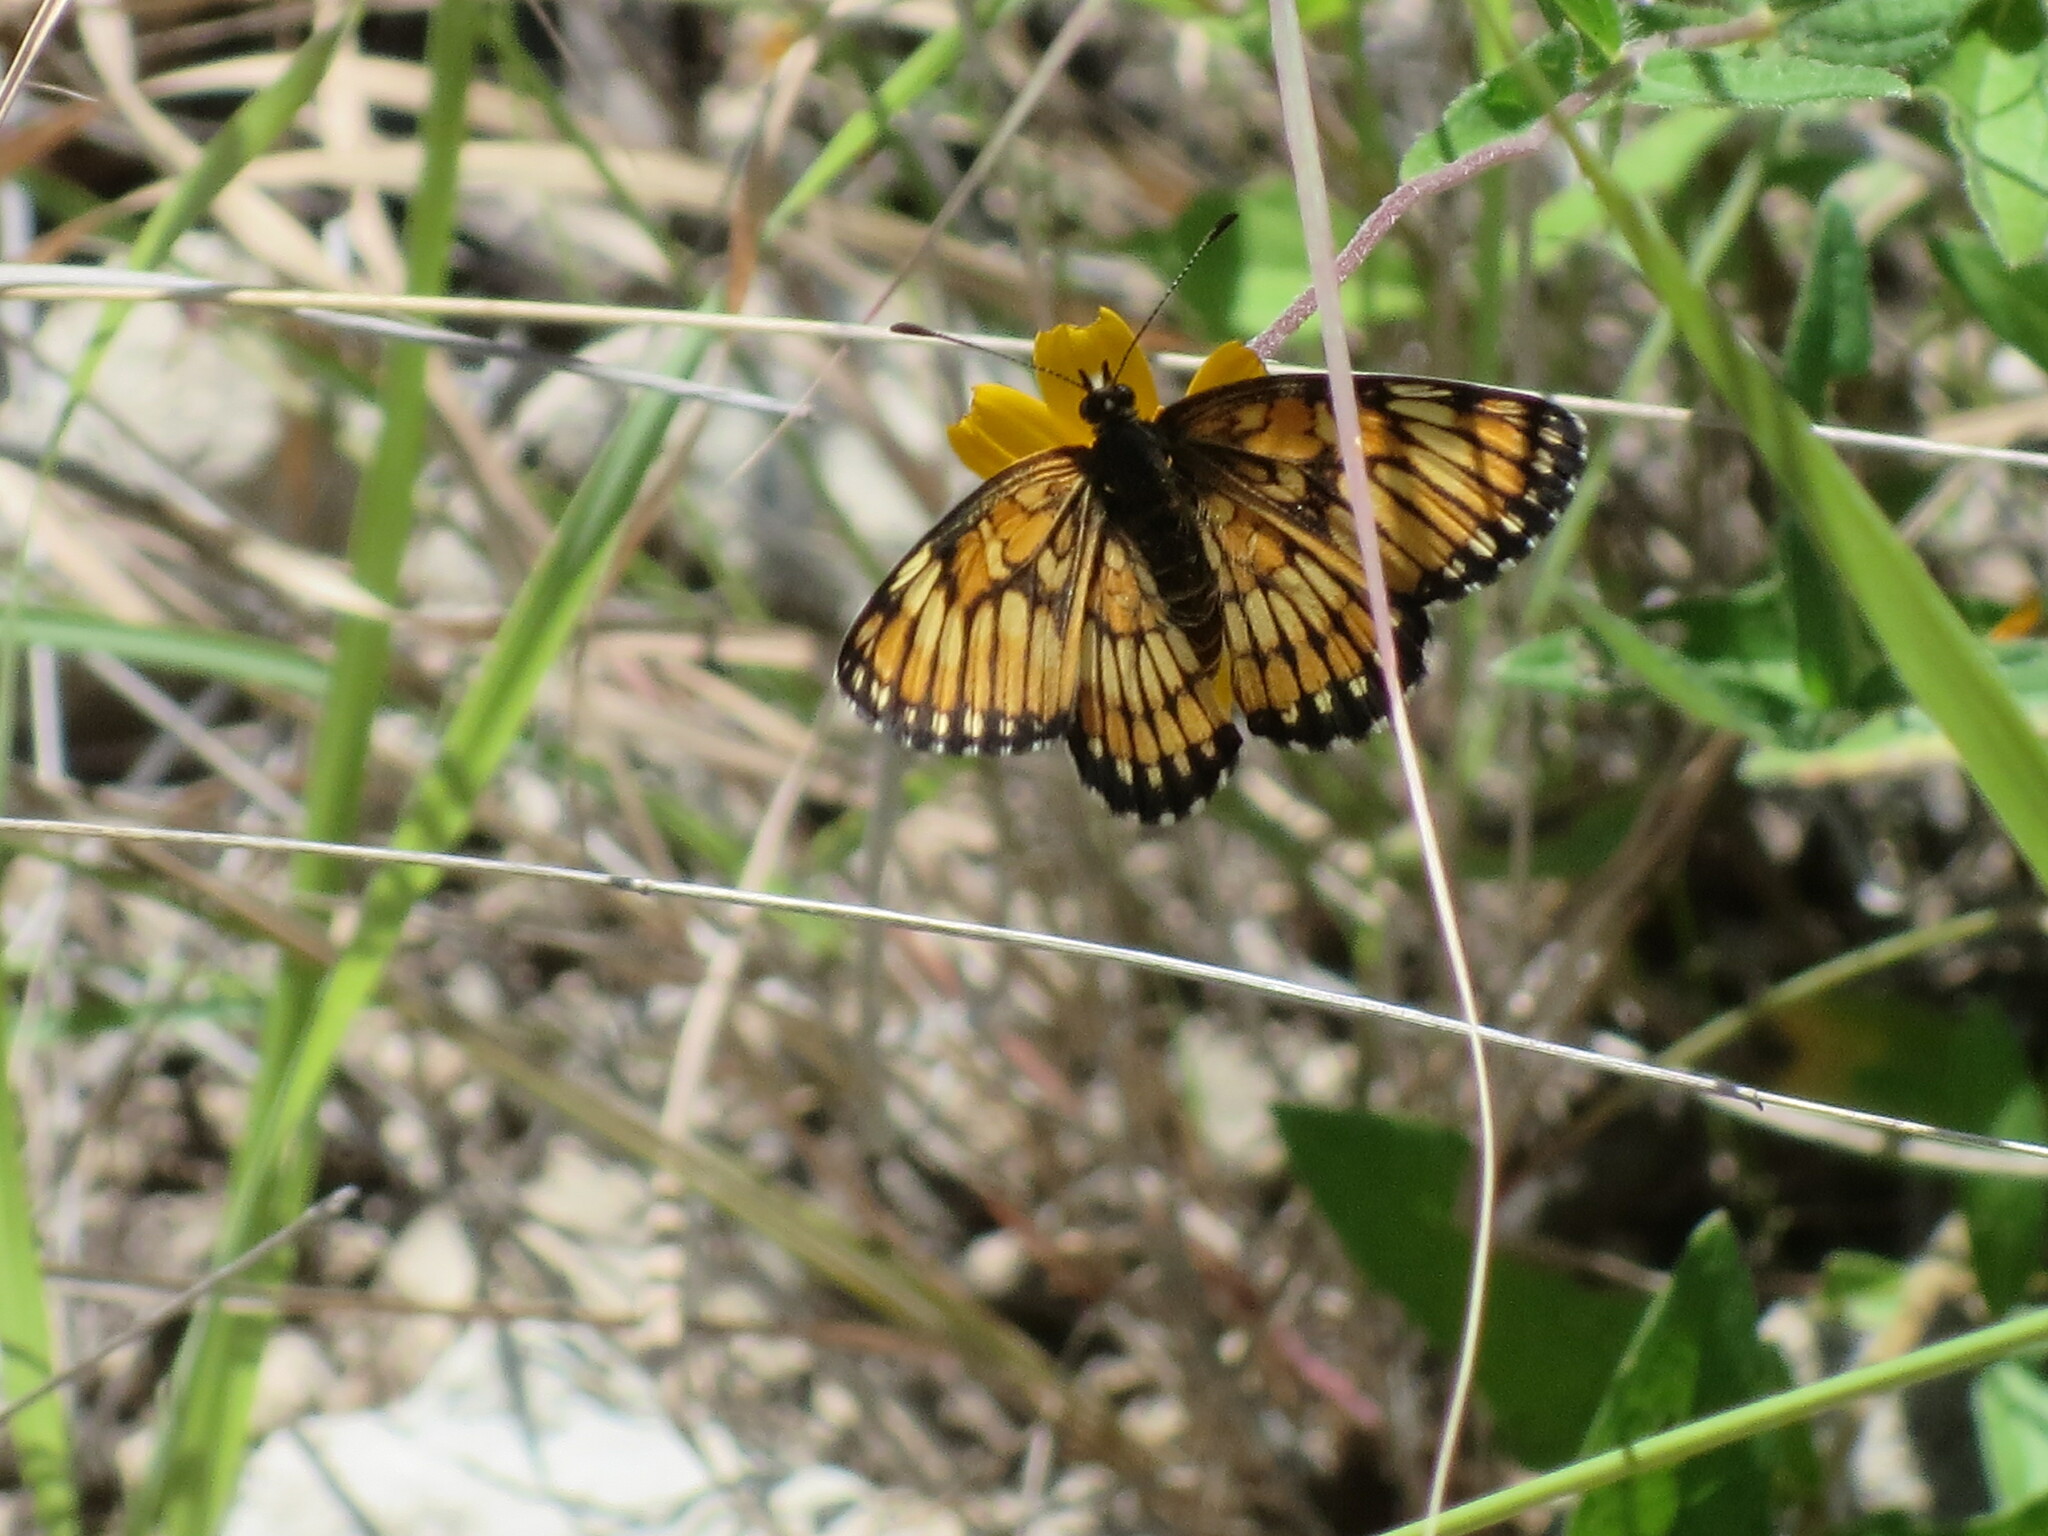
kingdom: Animalia
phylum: Arthropoda
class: Insecta
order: Lepidoptera
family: Nymphalidae
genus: Thessalia
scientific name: Thessalia theona
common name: Nymphalid moth
